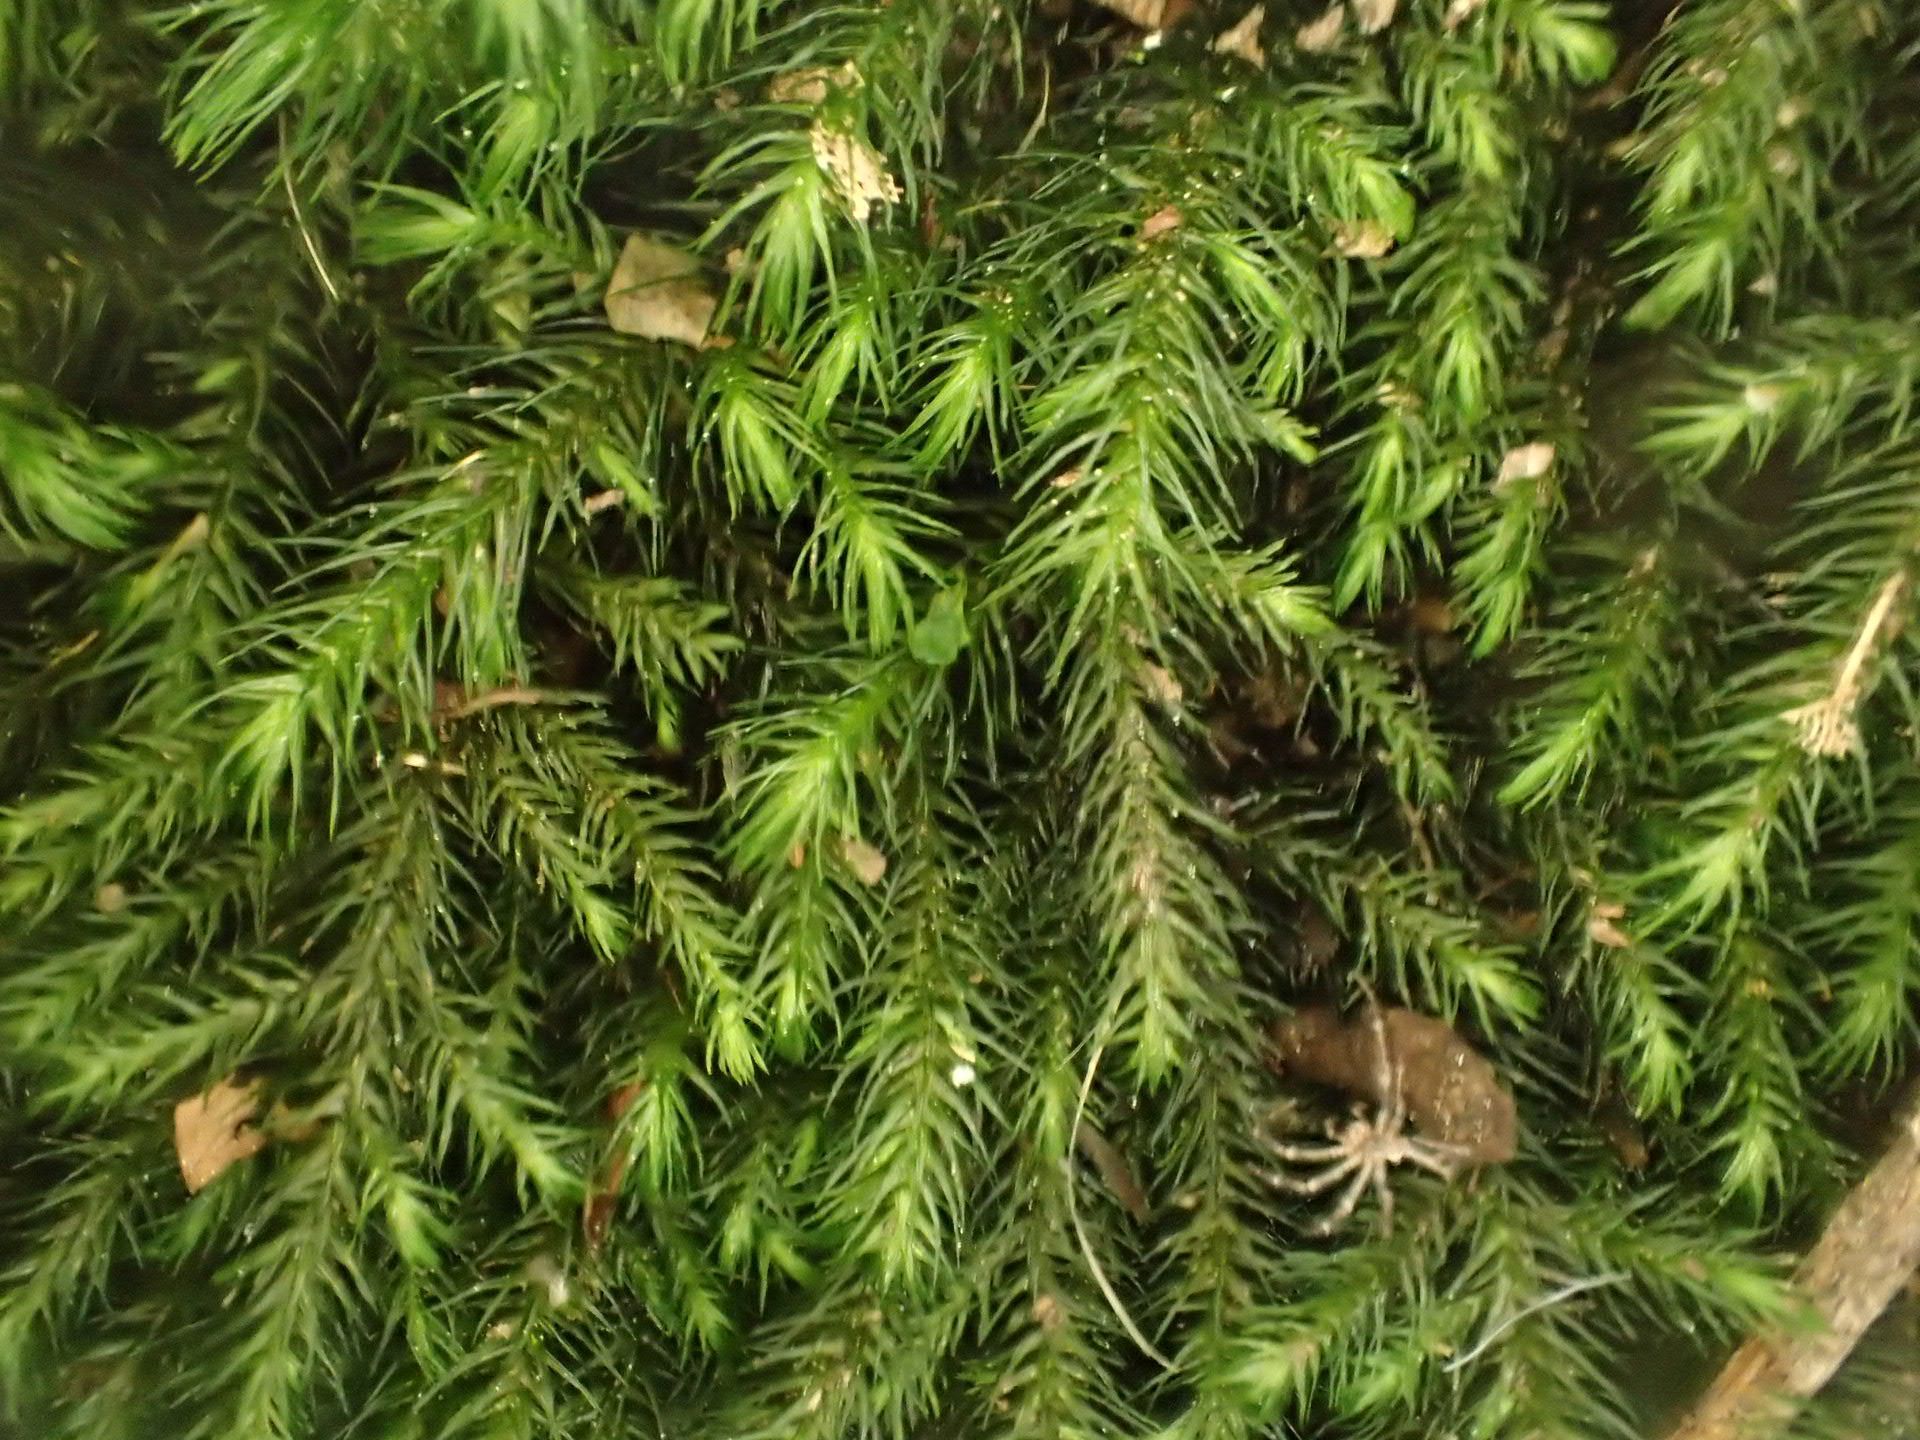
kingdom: Plantae
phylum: Bryophyta
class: Bryopsida
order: Hypnales
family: Neckeraceae
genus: Echinodiopsis
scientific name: Echinodiopsis hispida
